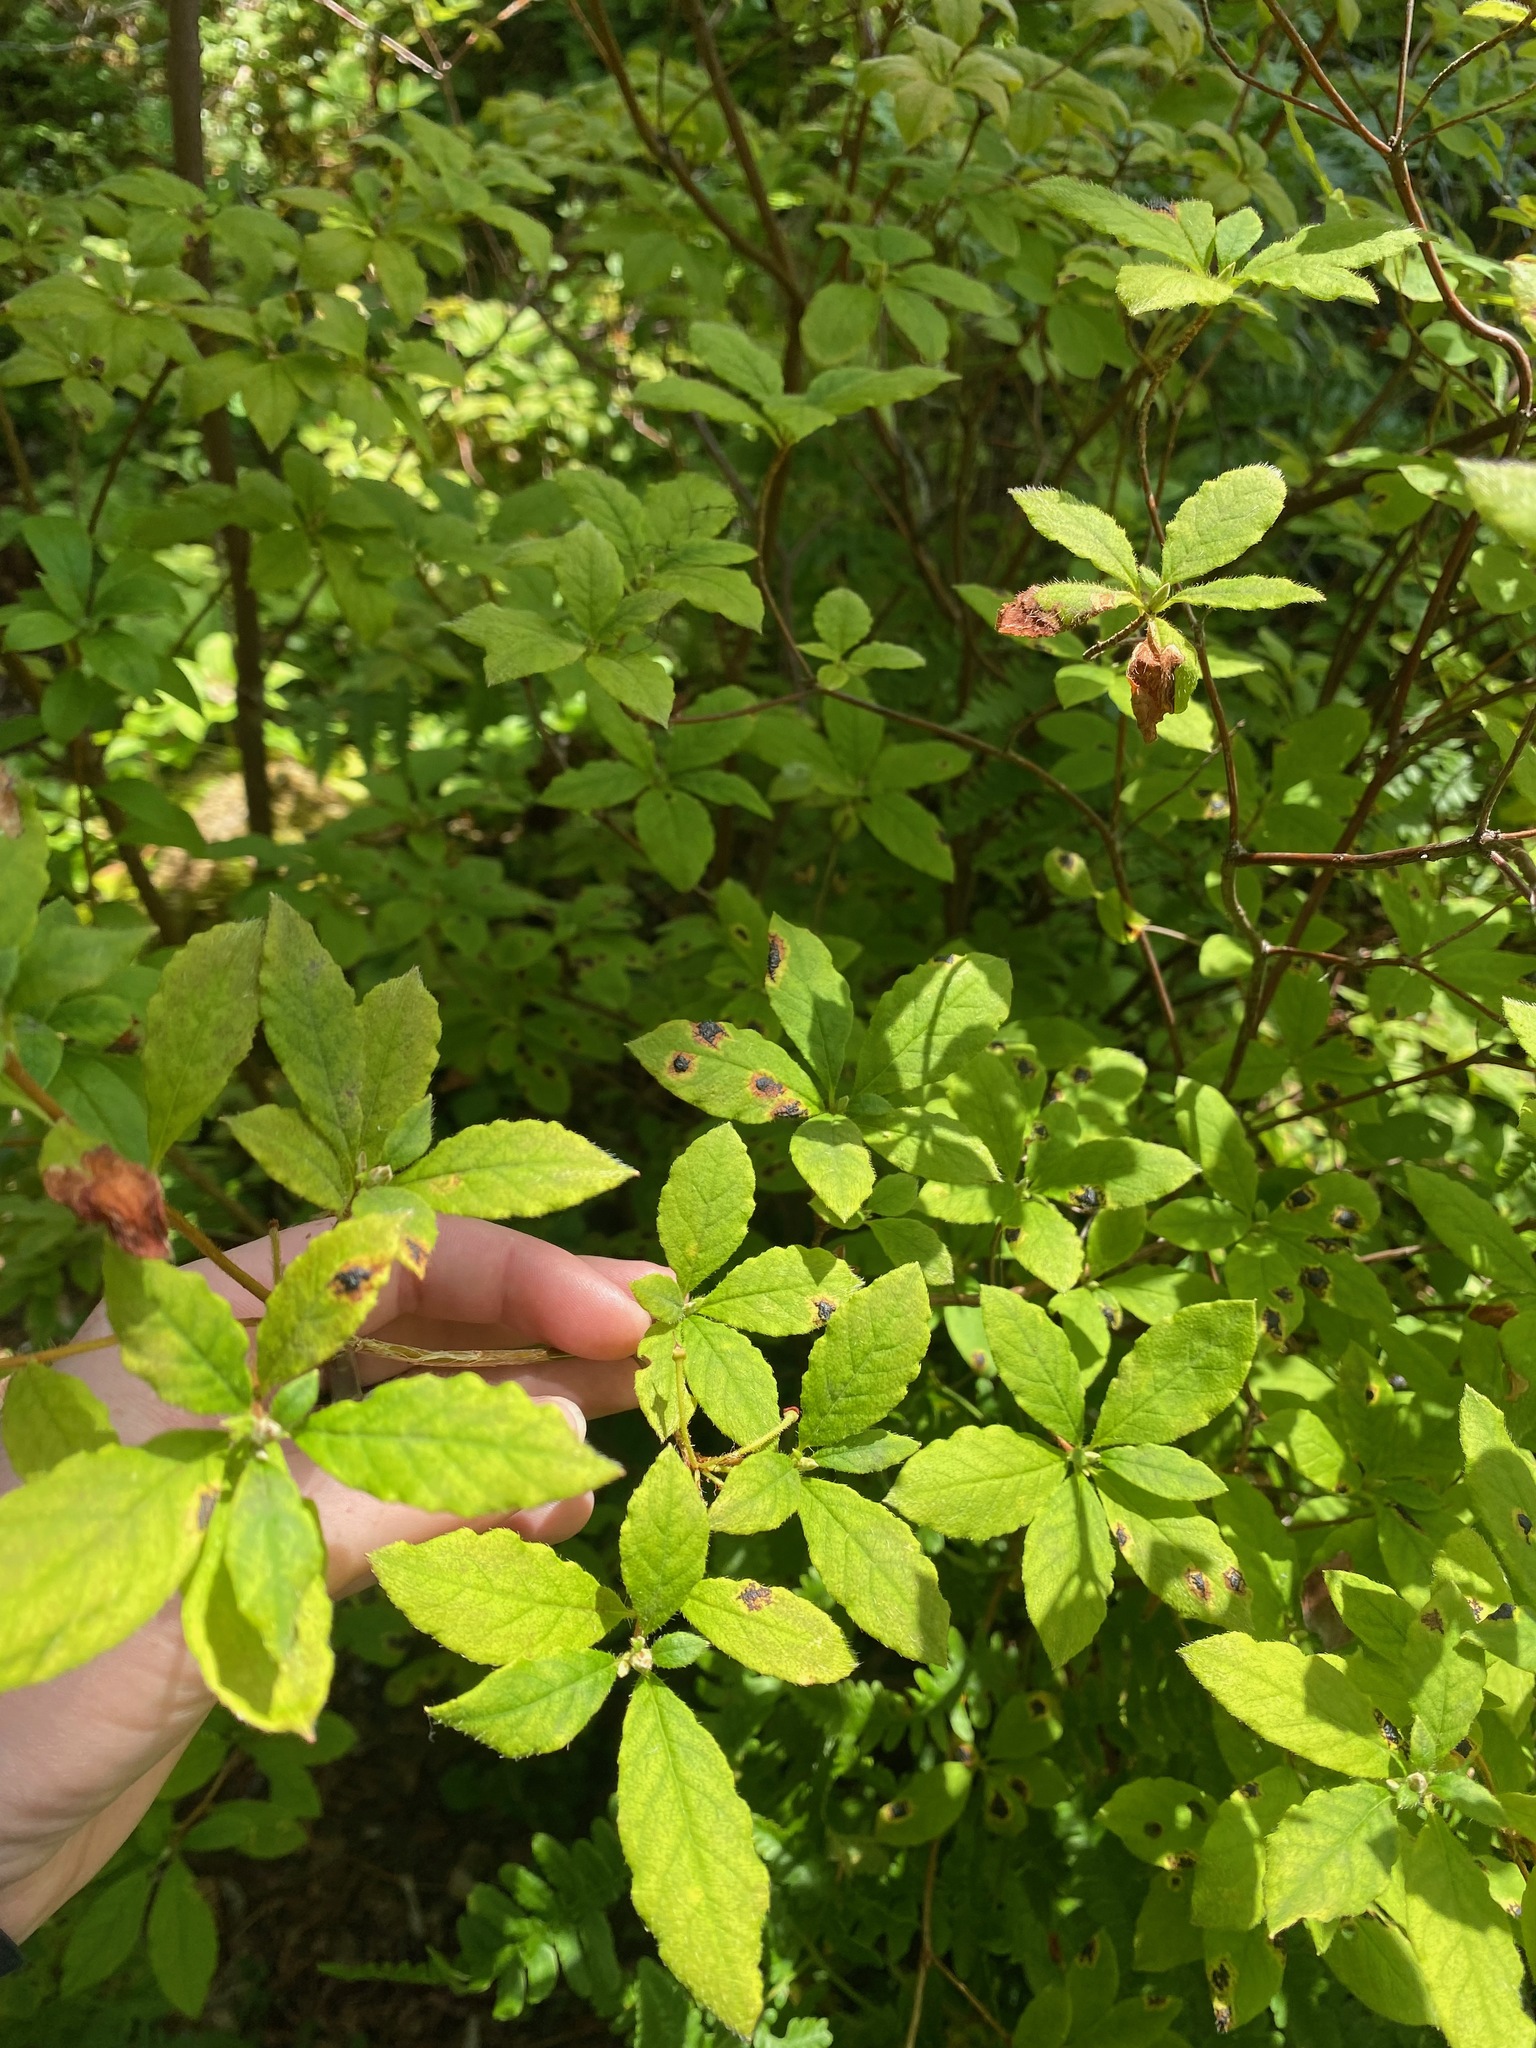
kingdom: Plantae
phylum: Tracheophyta
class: Magnoliopsida
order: Ericales
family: Ericaceae
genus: Rhododendron
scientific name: Rhododendron menziesii
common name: Pacific menziesia
